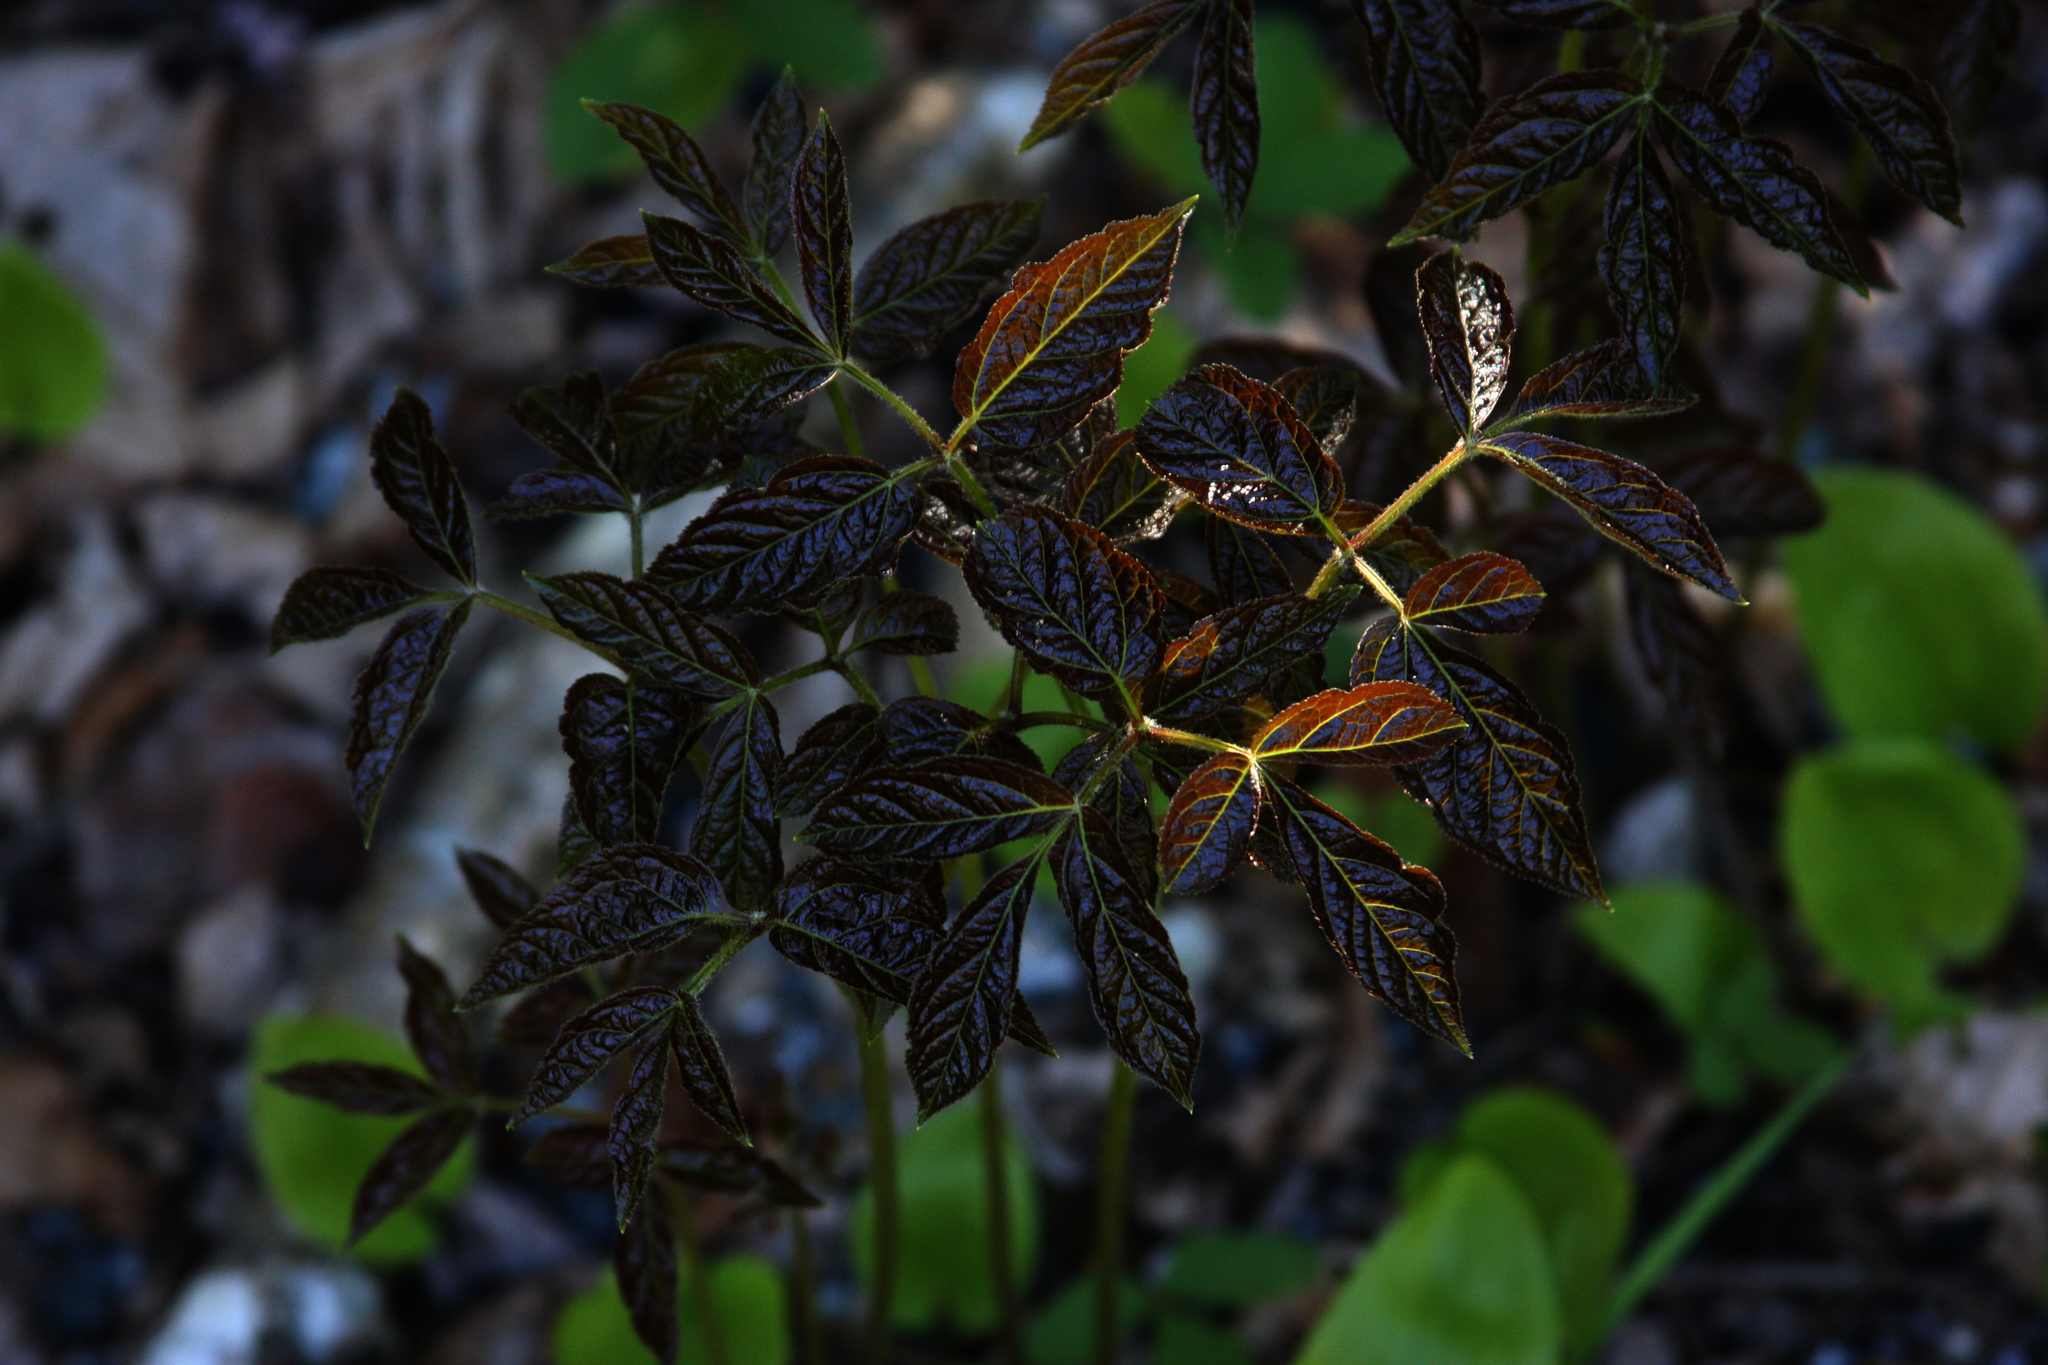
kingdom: Plantae
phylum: Tracheophyta
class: Magnoliopsida
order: Apiales
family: Araliaceae
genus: Aralia
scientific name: Aralia nudicaulis
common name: Wild sarsaparilla
